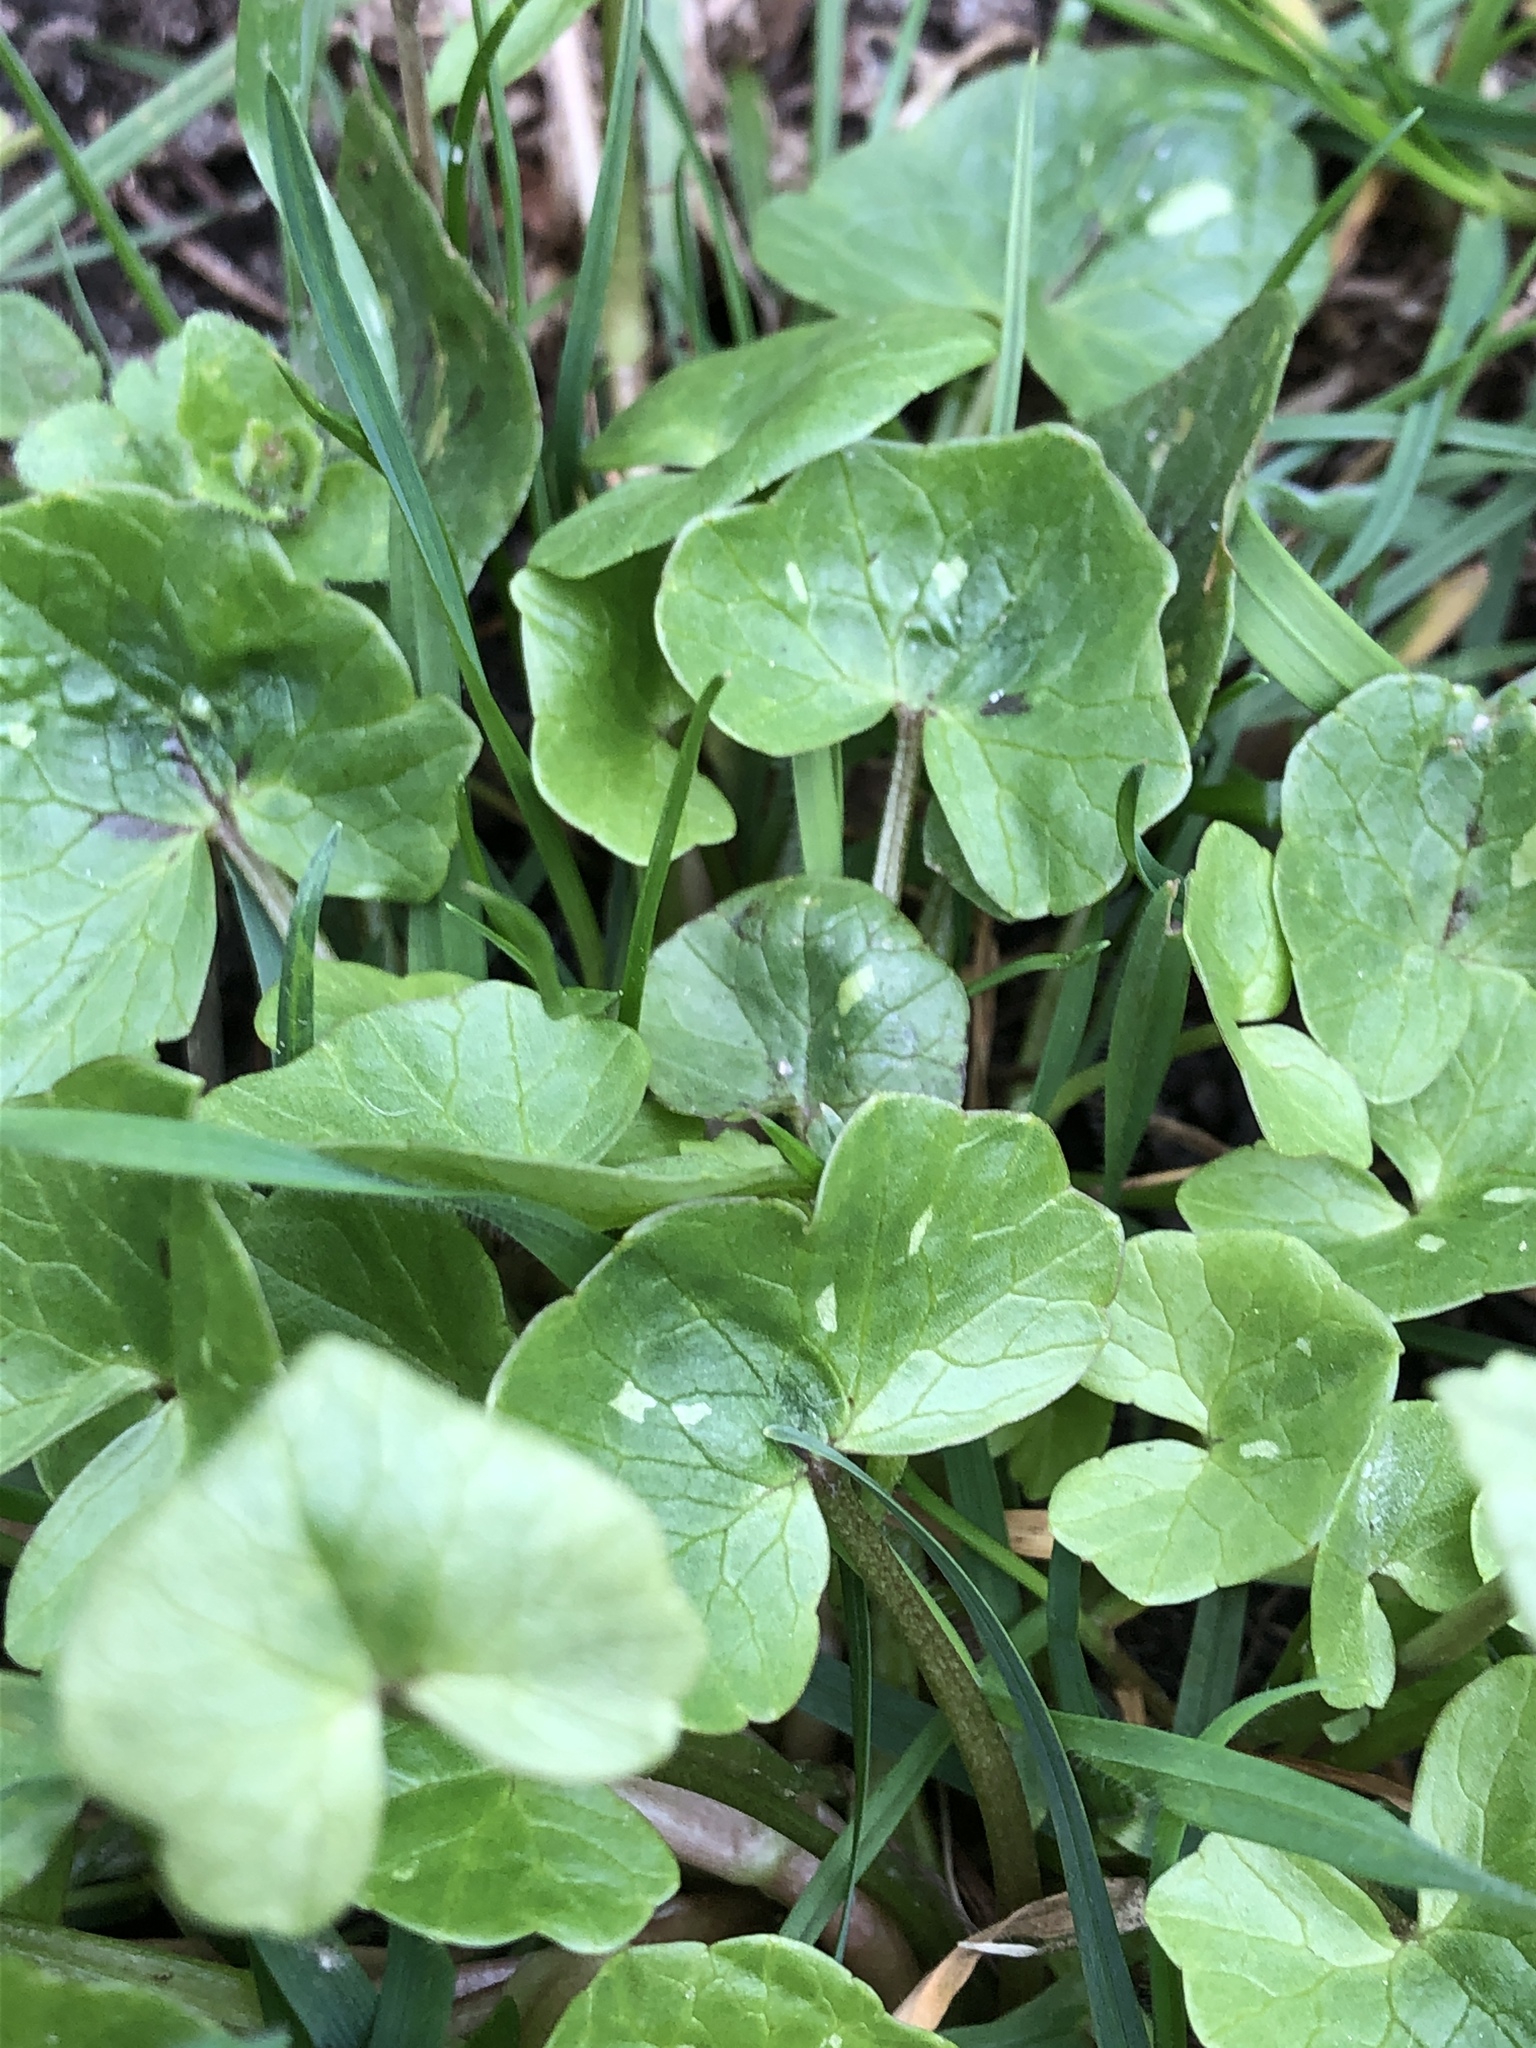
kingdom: Plantae
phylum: Tracheophyta
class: Magnoliopsida
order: Ranunculales
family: Ranunculaceae
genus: Ficaria
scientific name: Ficaria verna
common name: Lesser celandine
